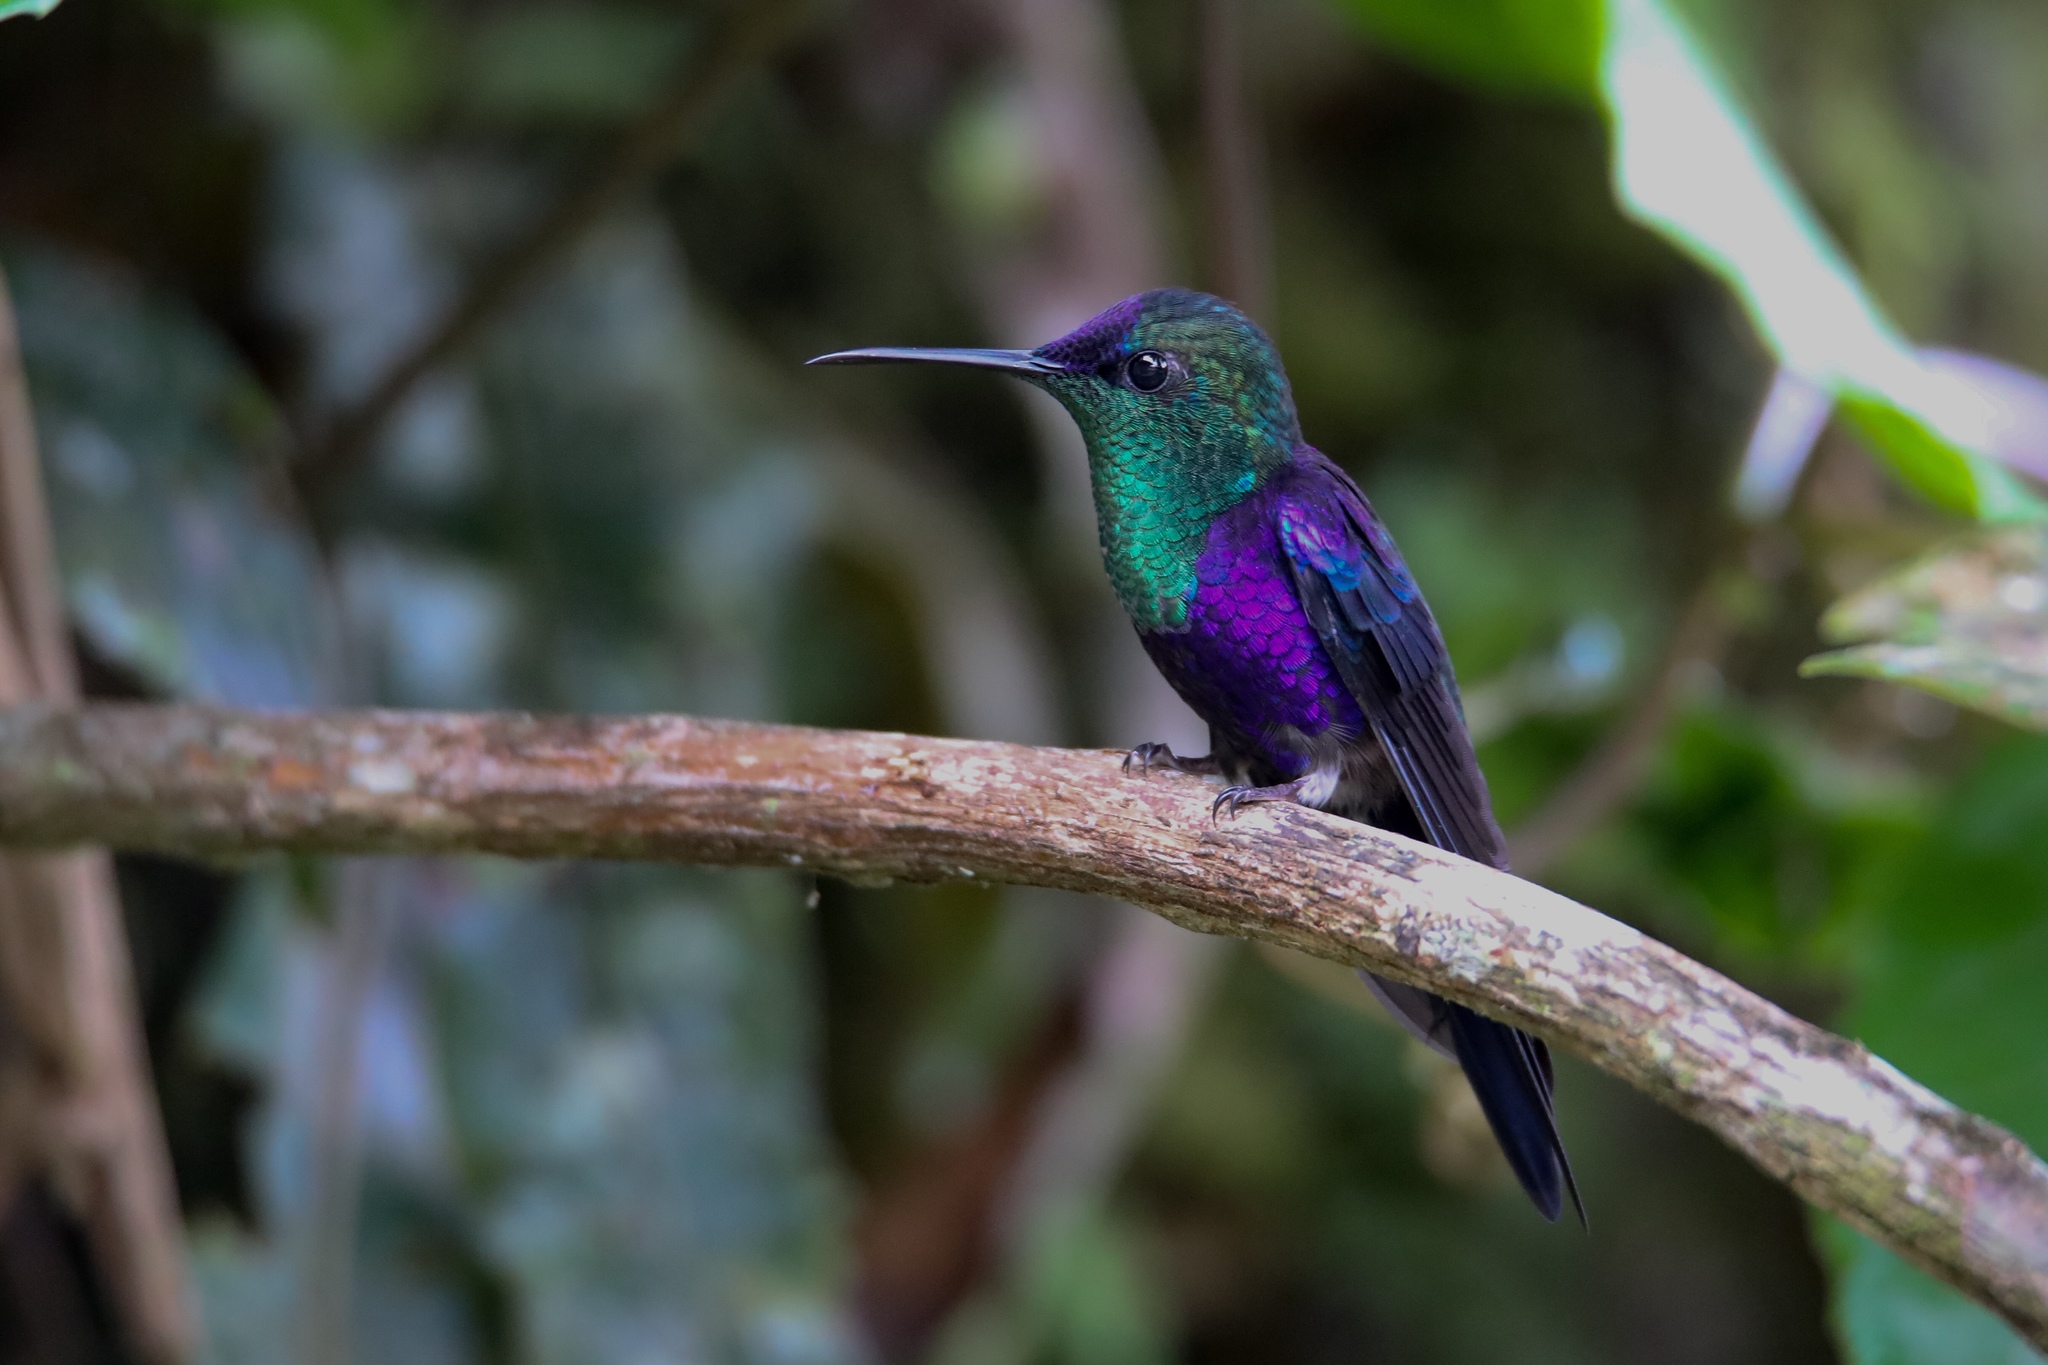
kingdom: Animalia
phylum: Chordata
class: Aves
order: Apodiformes
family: Trochilidae
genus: Thalurania
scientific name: Thalurania colombica
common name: Crowned woodnymph
